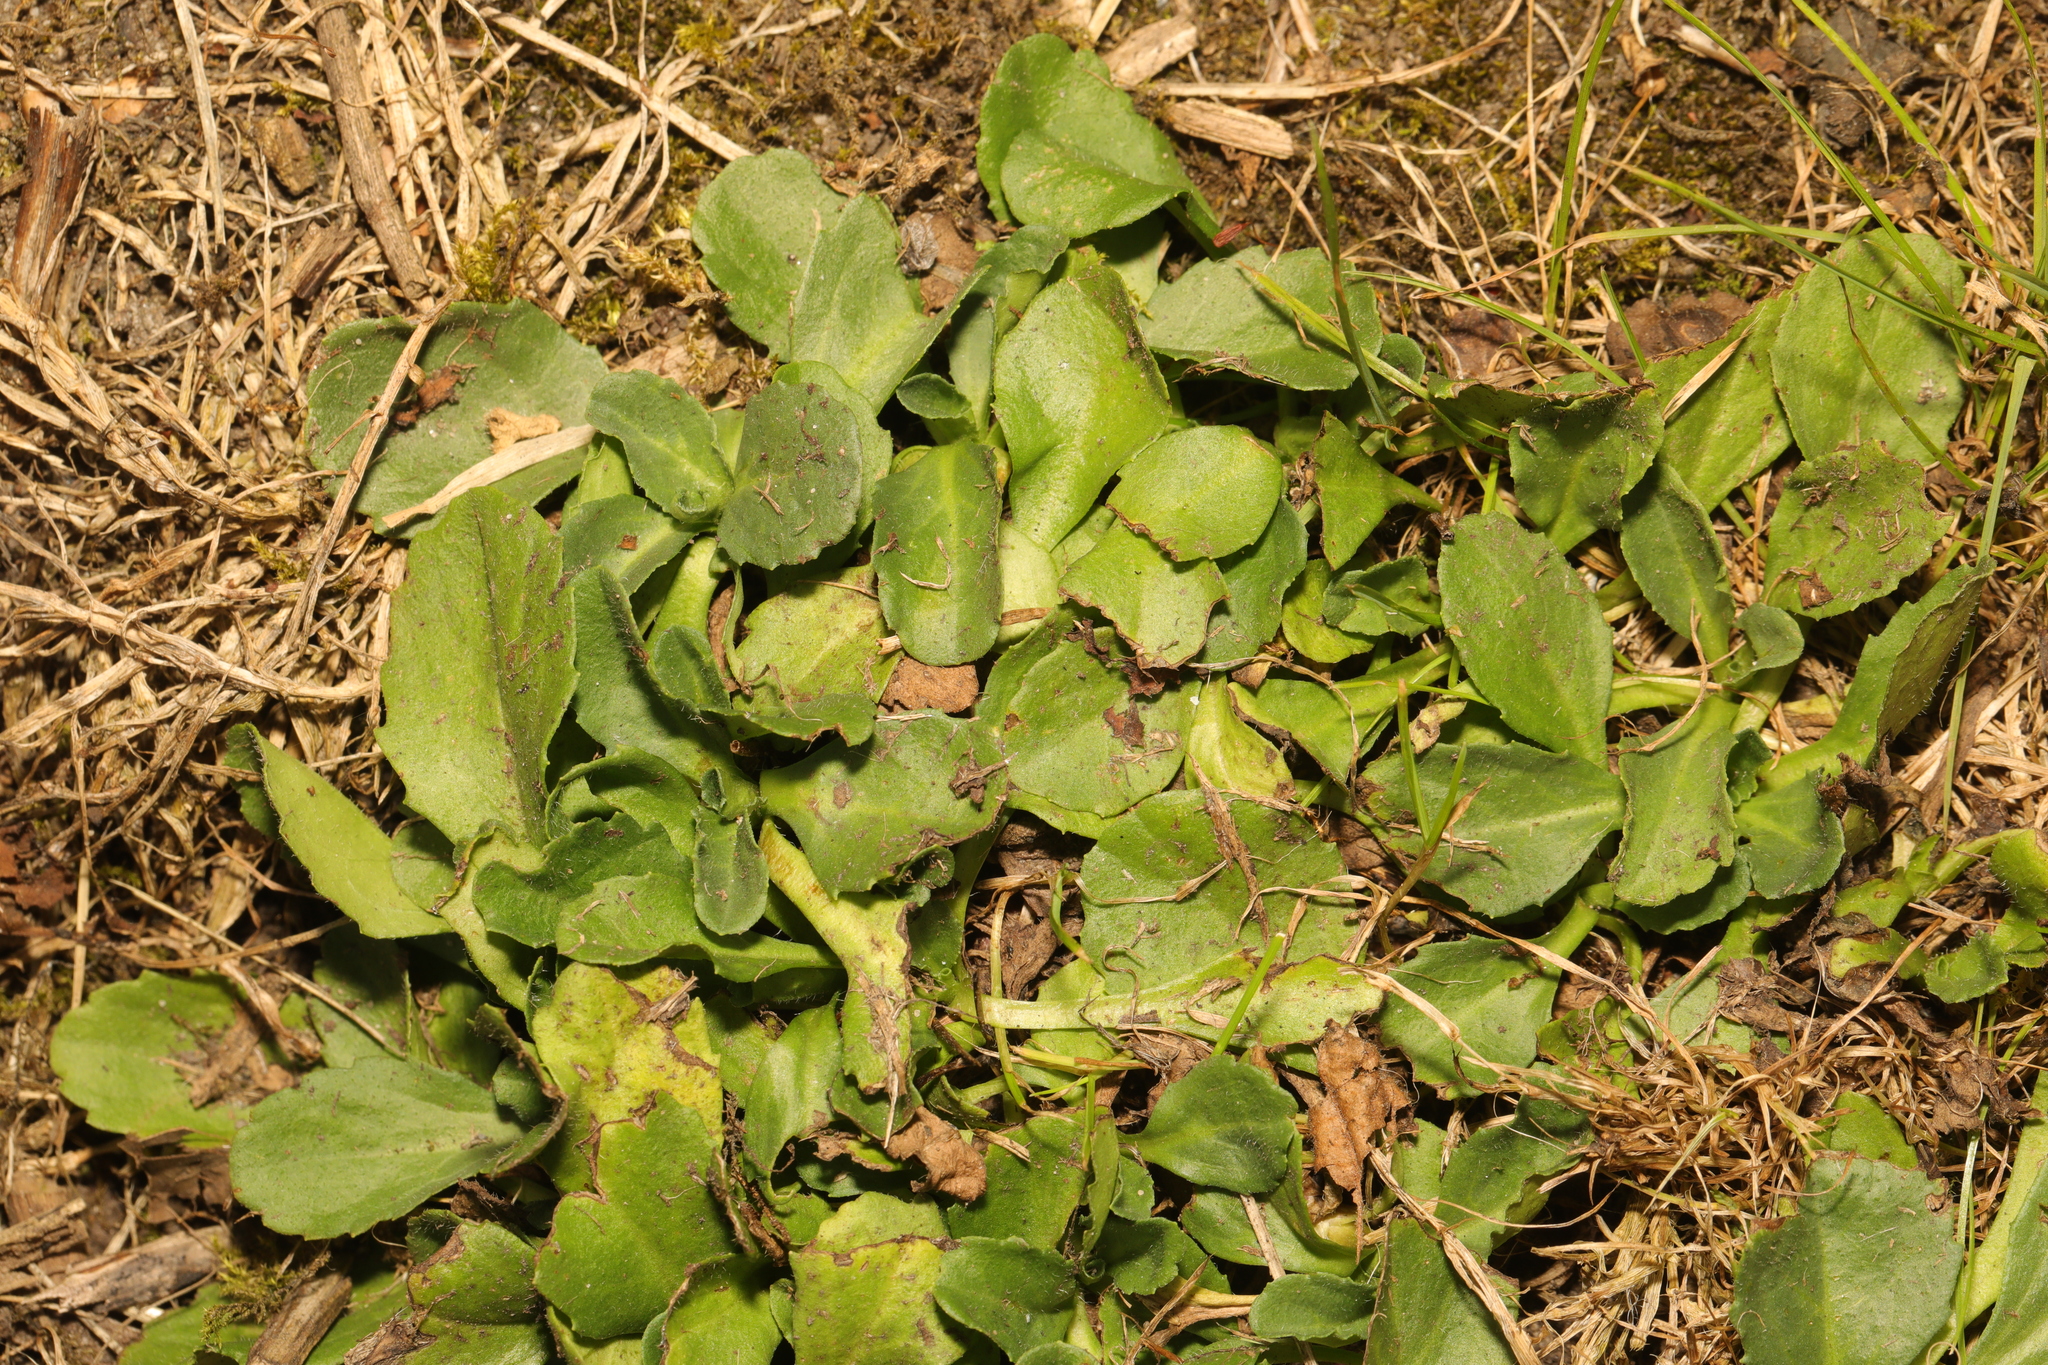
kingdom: Plantae
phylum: Tracheophyta
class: Magnoliopsida
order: Asterales
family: Asteraceae
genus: Bellis
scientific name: Bellis perennis
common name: Lawndaisy
